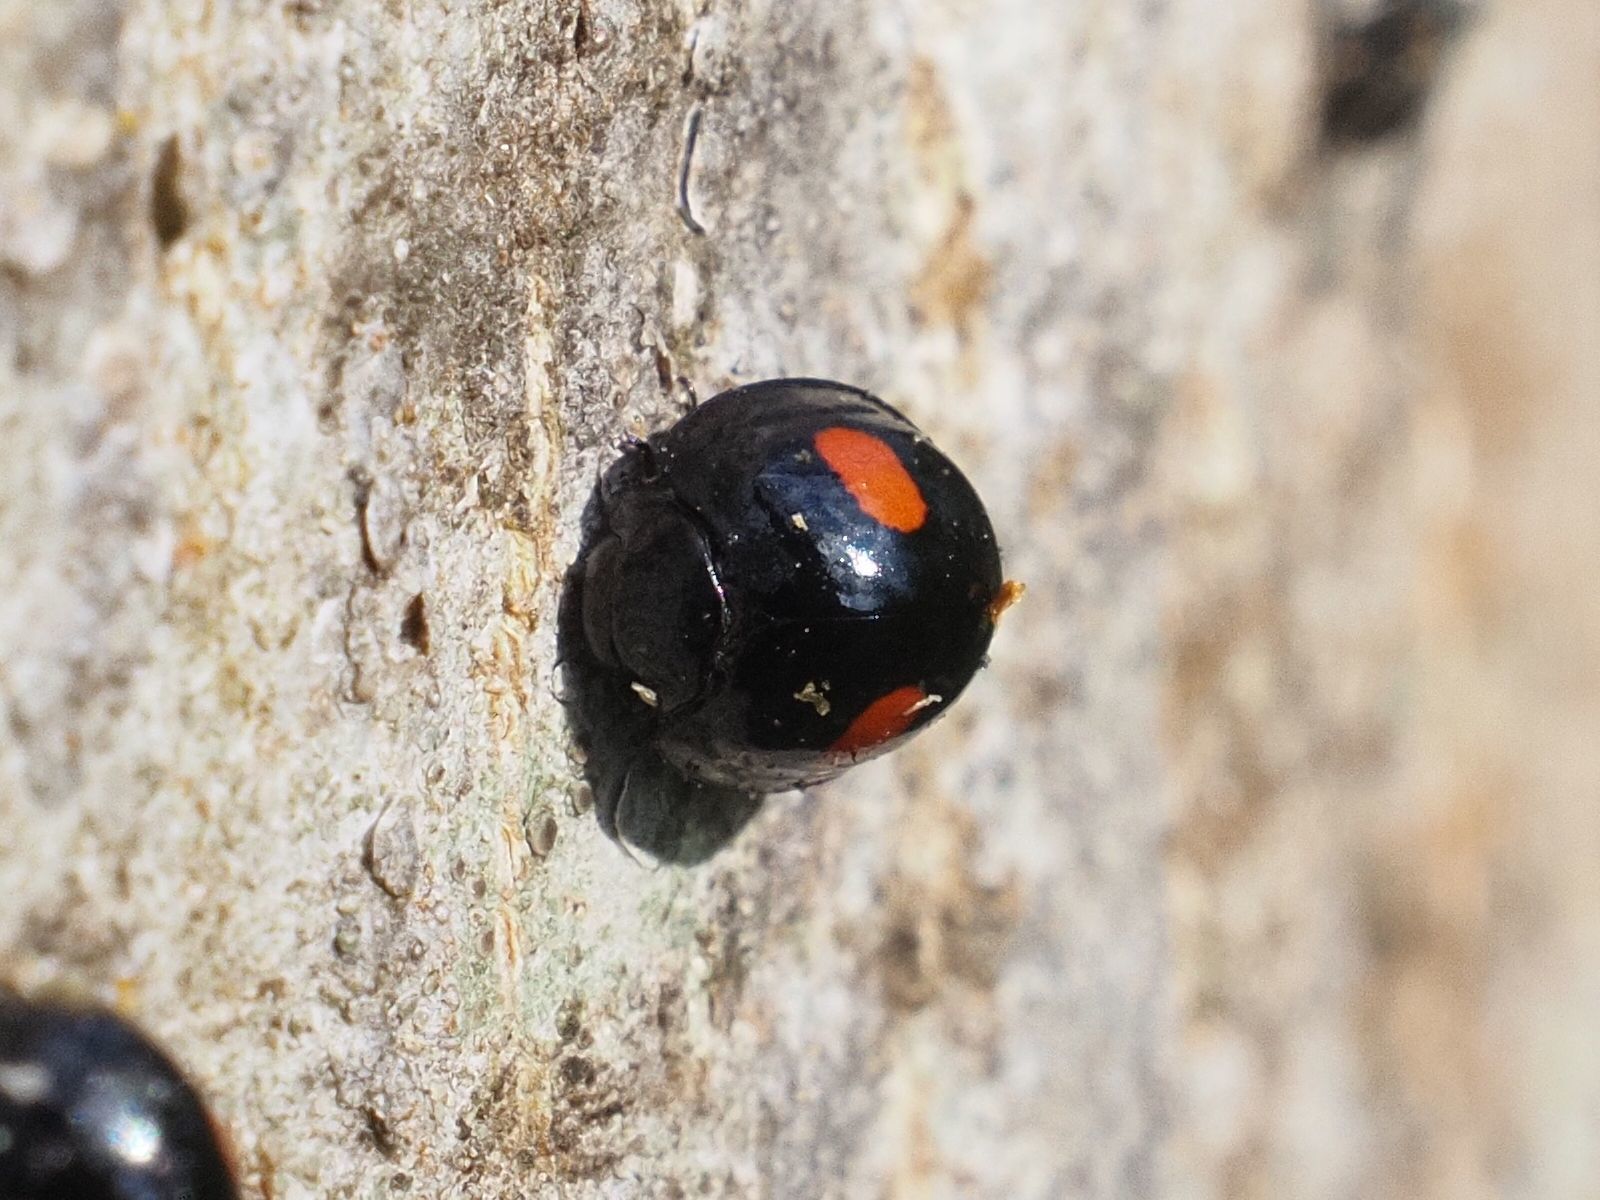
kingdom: Animalia
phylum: Arthropoda
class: Insecta
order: Coleoptera
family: Coccinellidae
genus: Chilocorus
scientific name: Chilocorus renipustulatus
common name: Kidney-spot ladybird
